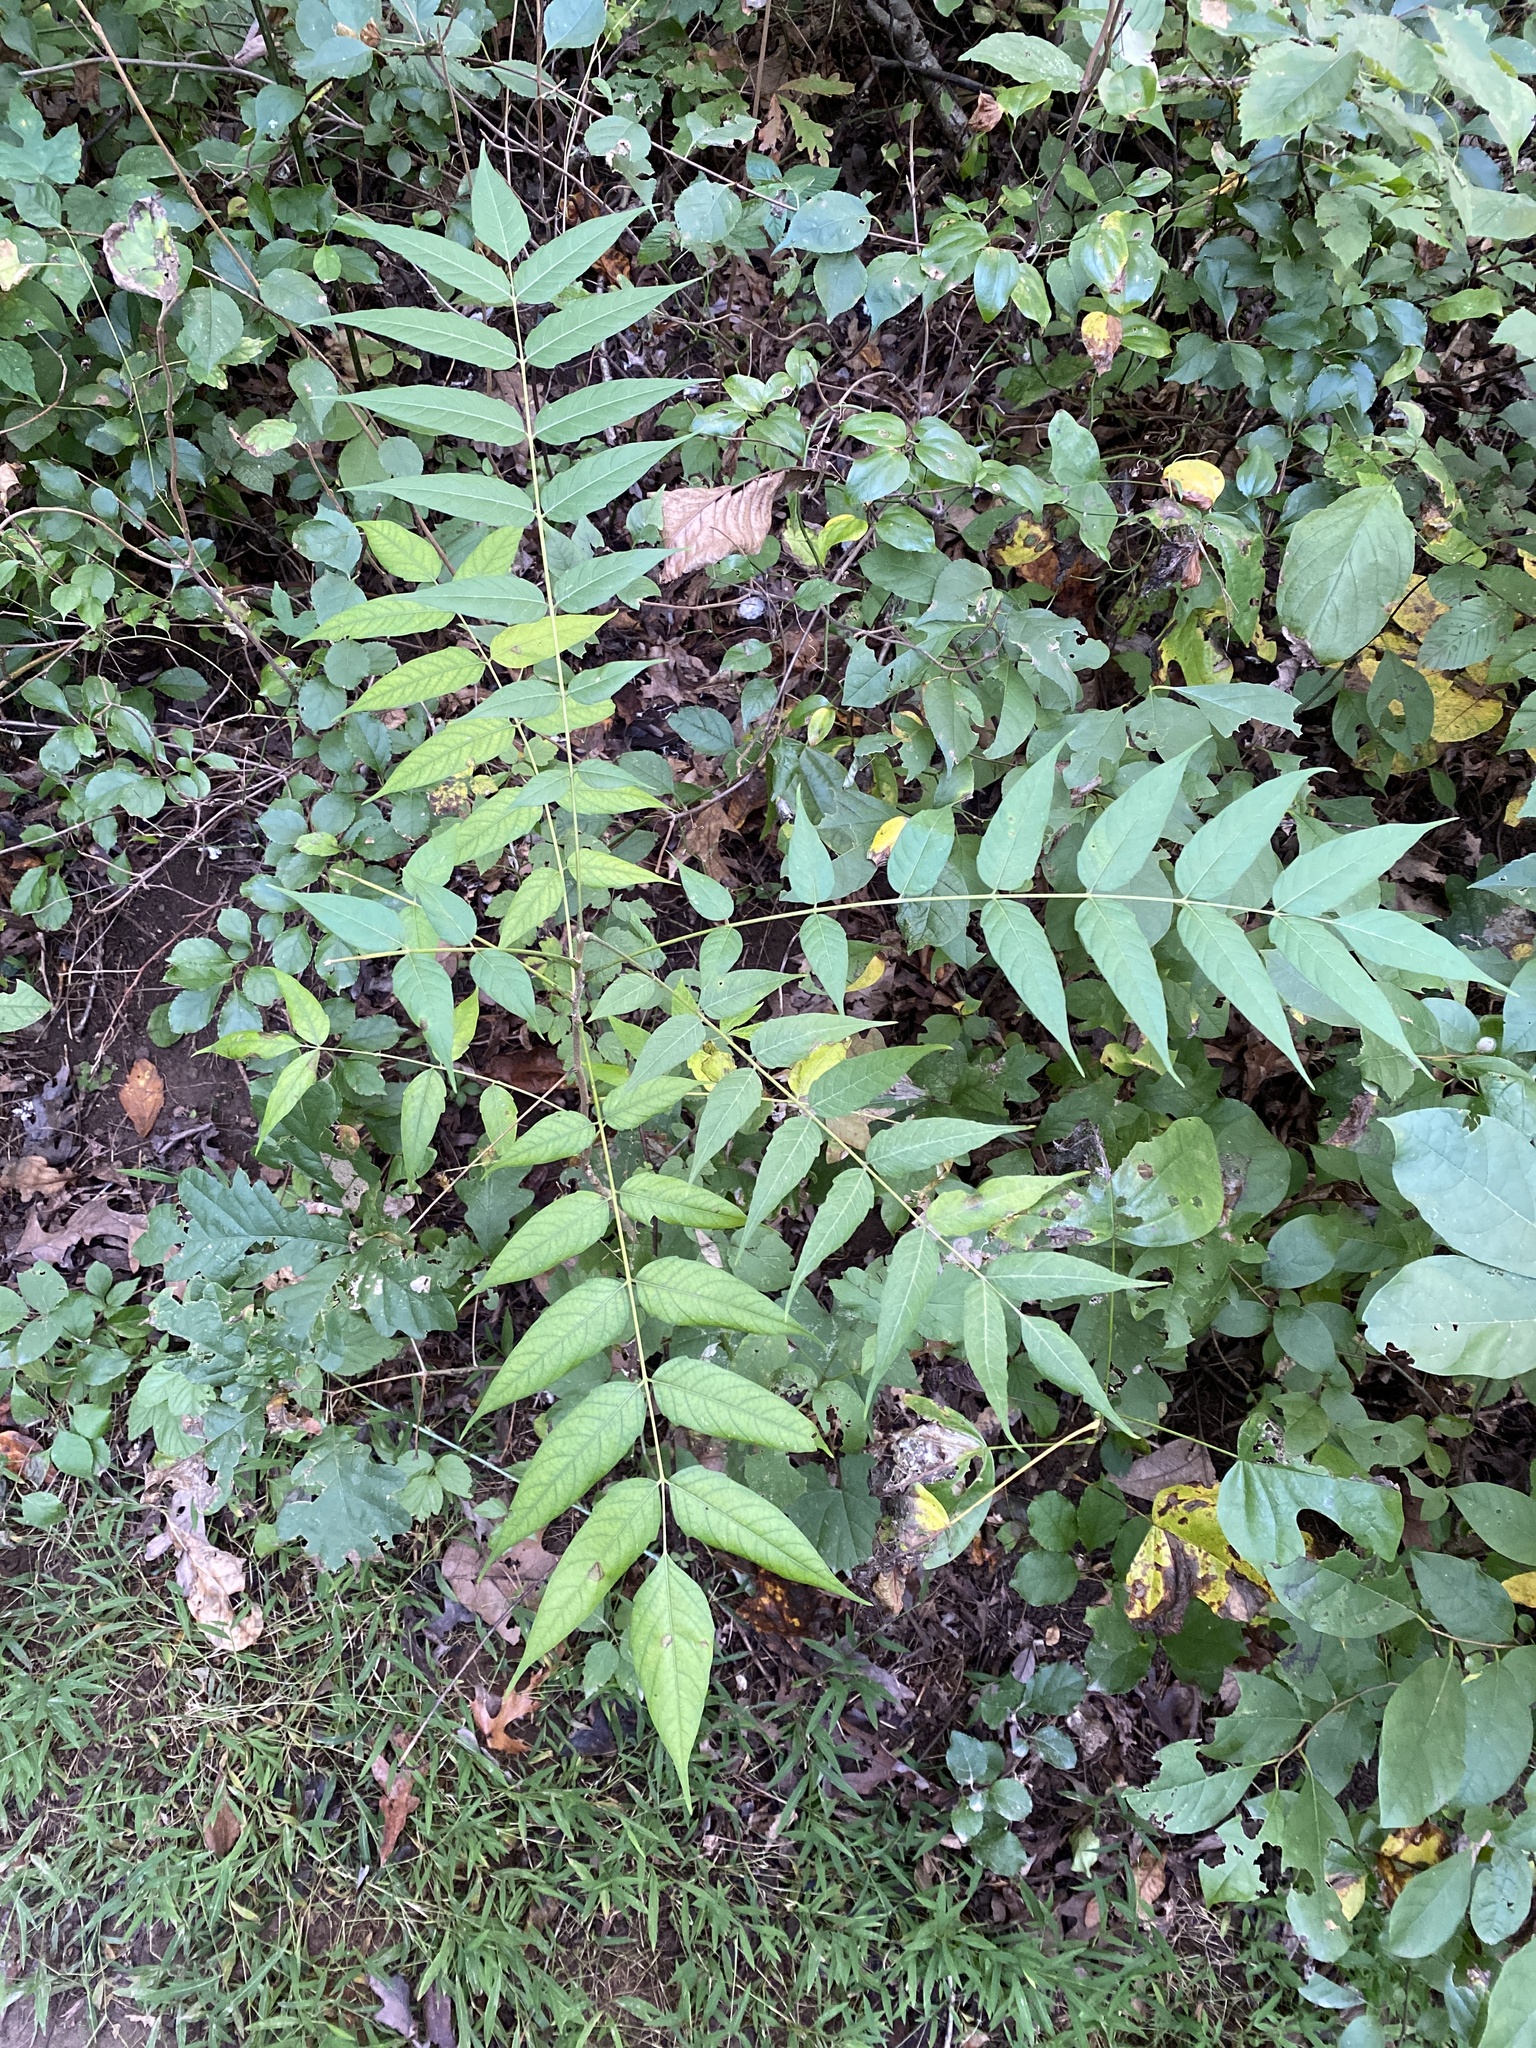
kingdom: Plantae
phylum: Tracheophyta
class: Magnoliopsida
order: Sapindales
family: Simaroubaceae
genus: Ailanthus
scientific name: Ailanthus altissima
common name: Tree-of-heaven
